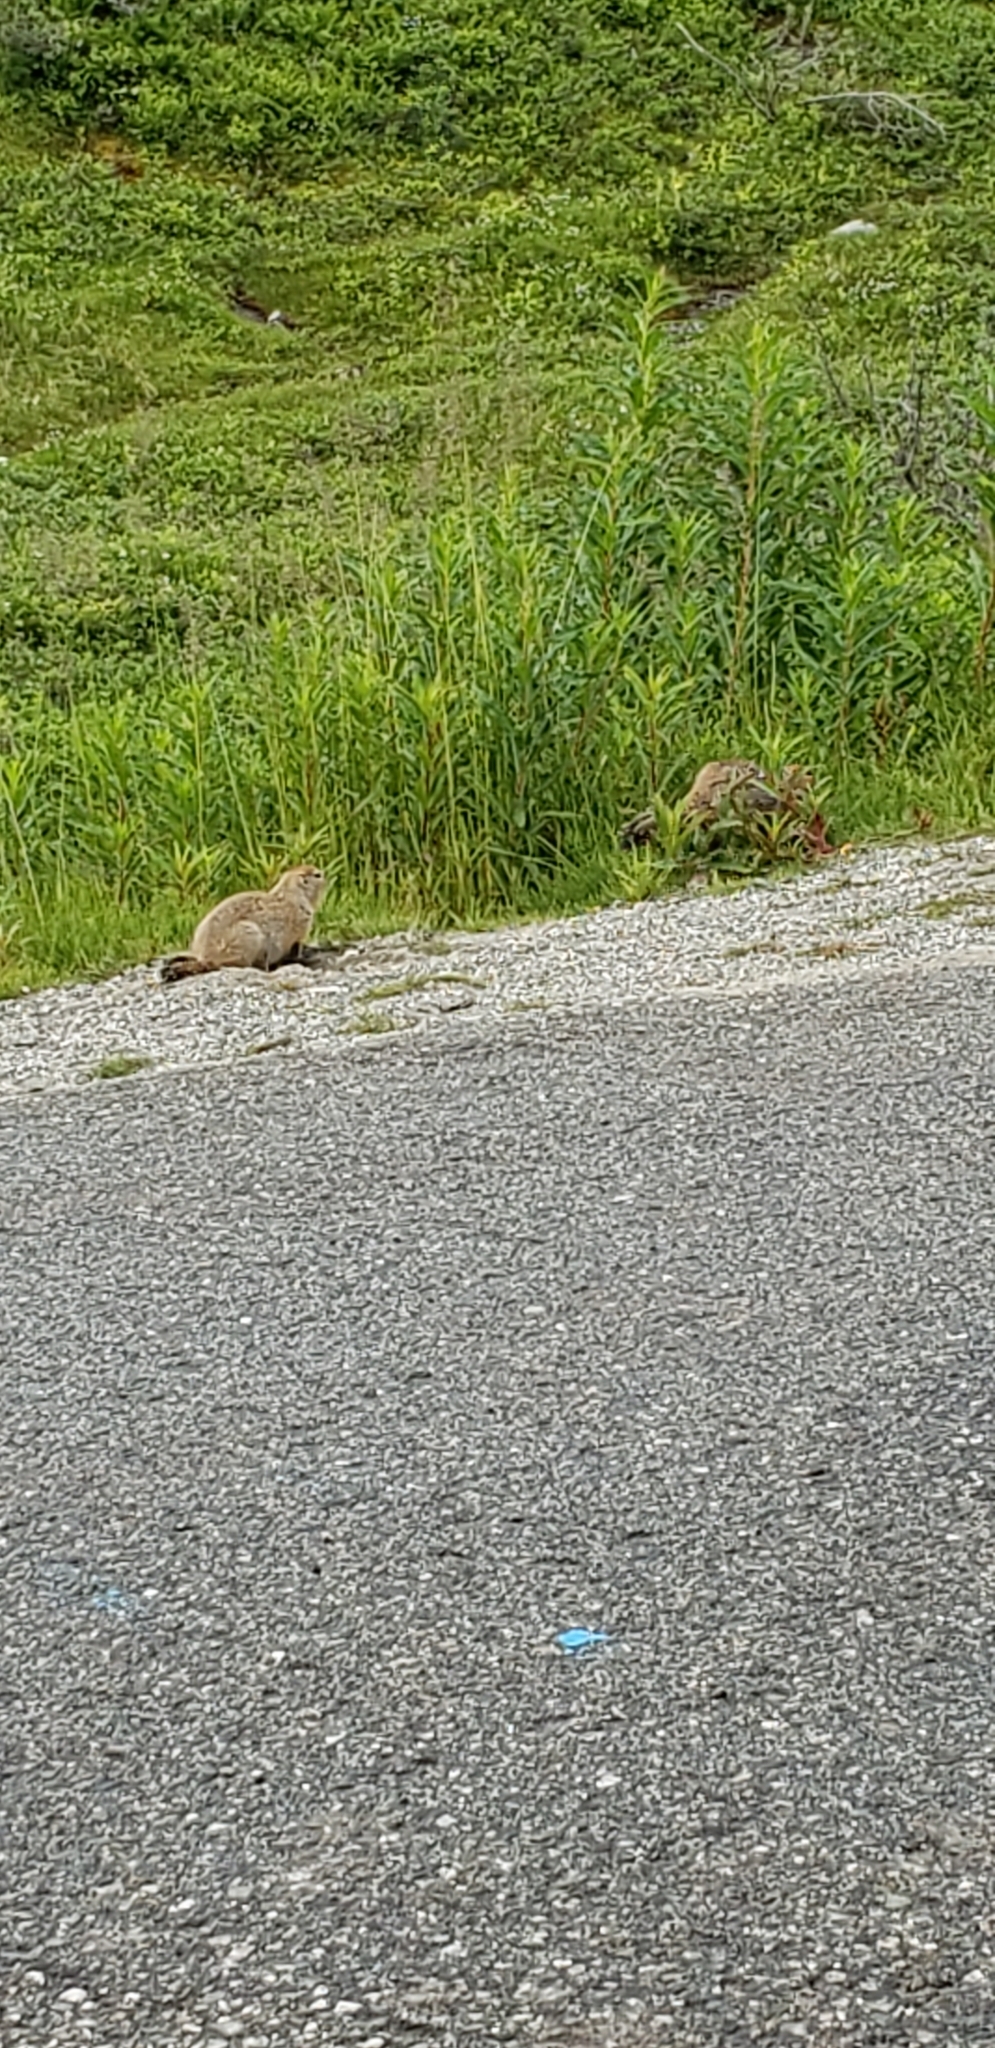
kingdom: Animalia
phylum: Chordata
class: Mammalia
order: Rodentia
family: Sciuridae
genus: Urocitellus
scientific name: Urocitellus parryii
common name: Arctic ground squirrel
